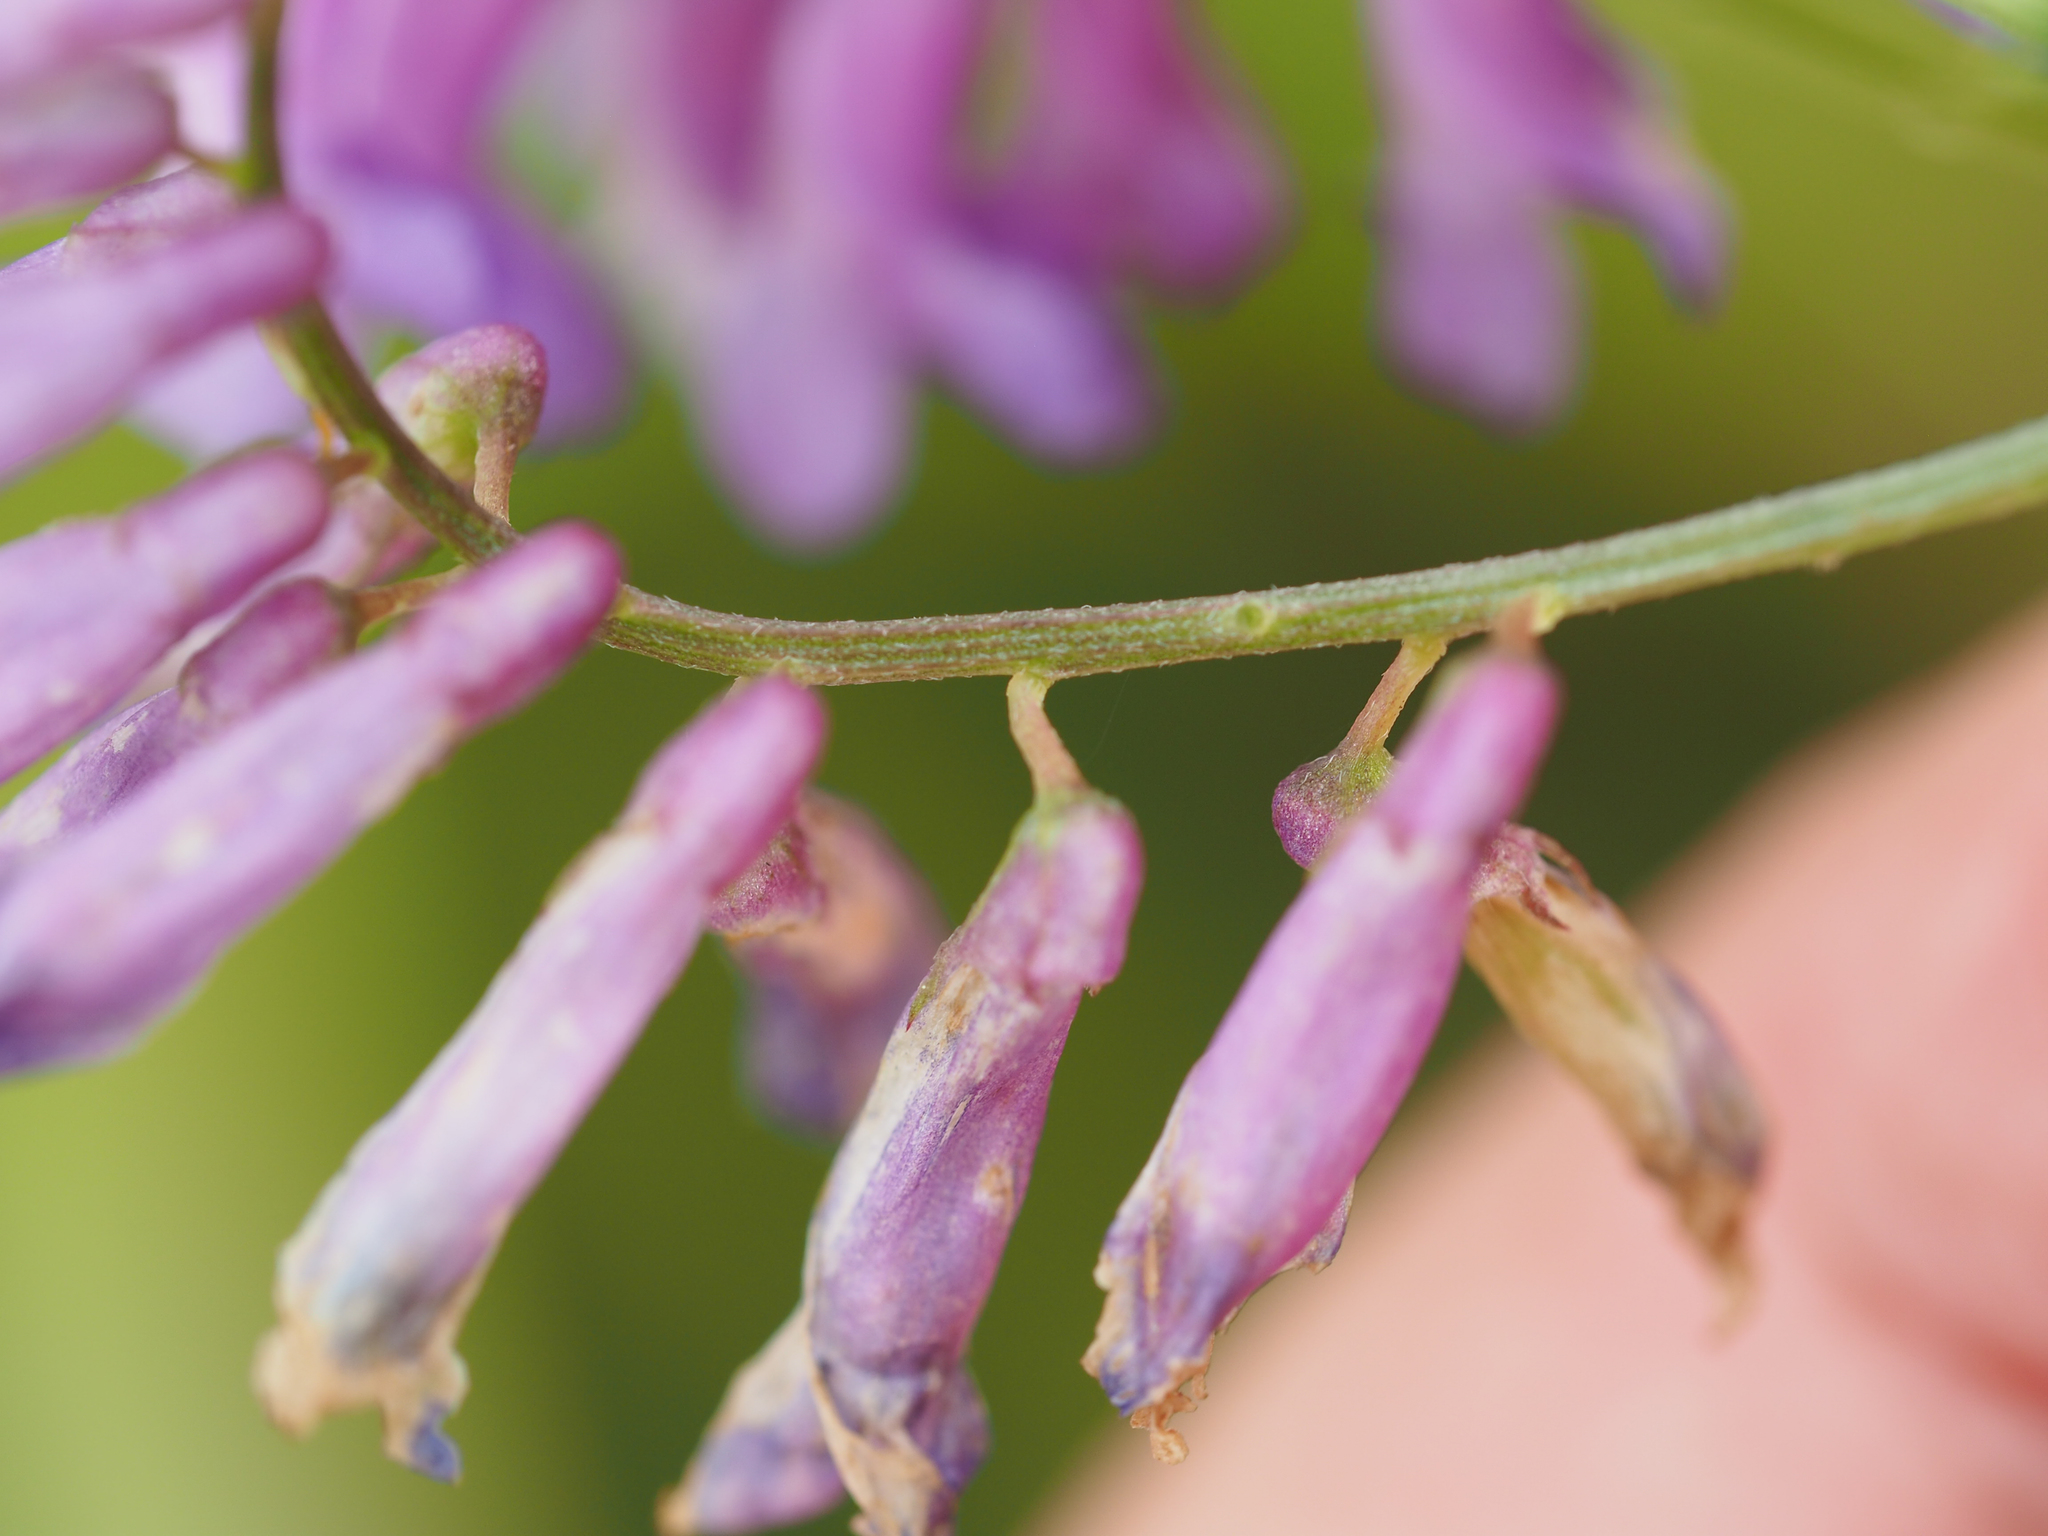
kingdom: Plantae
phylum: Tracheophyta
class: Magnoliopsida
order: Fabales
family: Fabaceae
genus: Vicia
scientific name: Vicia villosa
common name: Fodder vetch
